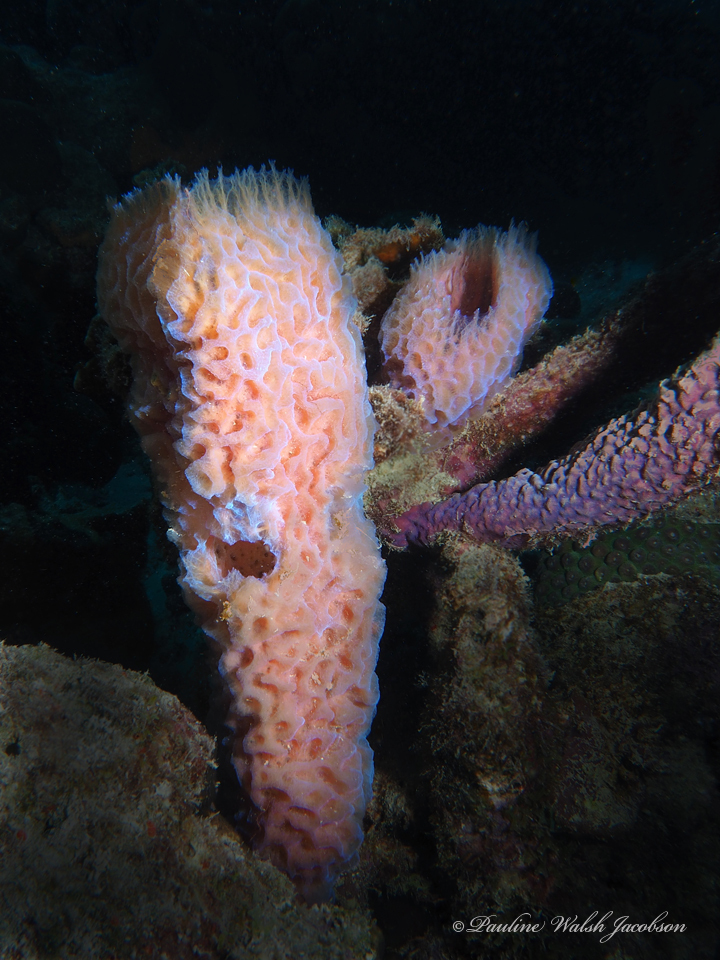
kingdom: Animalia
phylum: Porifera
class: Demospongiae
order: Haplosclerida
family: Callyspongiidae
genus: Callyspongia
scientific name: Callyspongia plicifera
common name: Azure vase sponge
